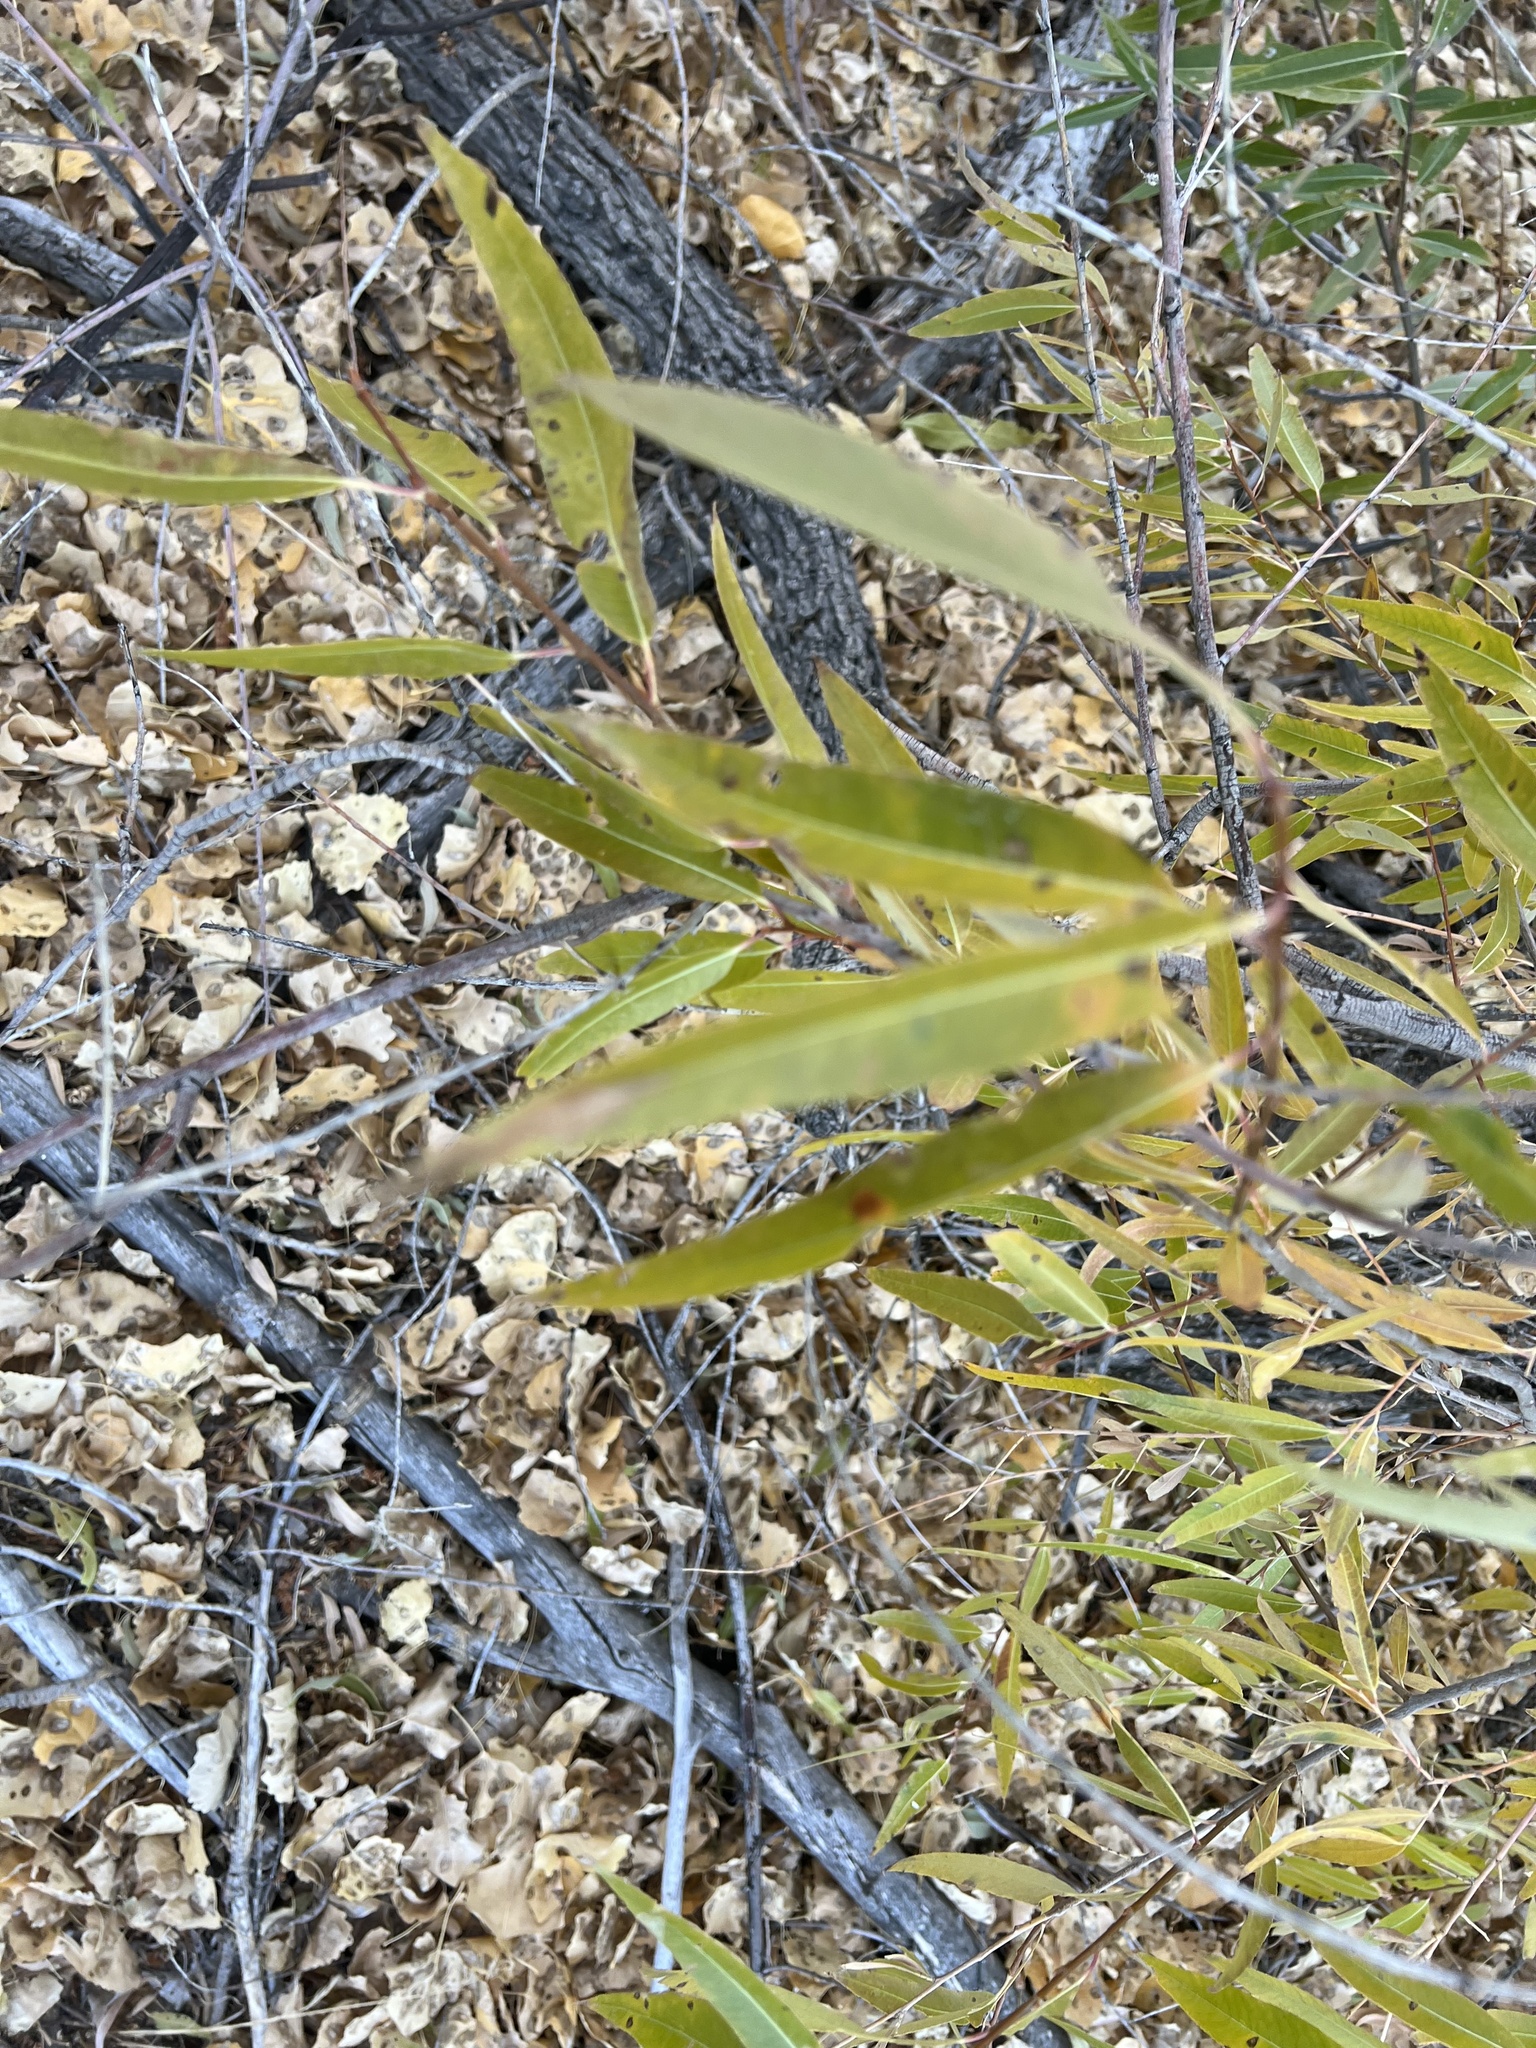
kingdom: Plantae
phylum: Tracheophyta
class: Magnoliopsida
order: Malpighiales
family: Salicaceae
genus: Salix
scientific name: Salix laevigata
